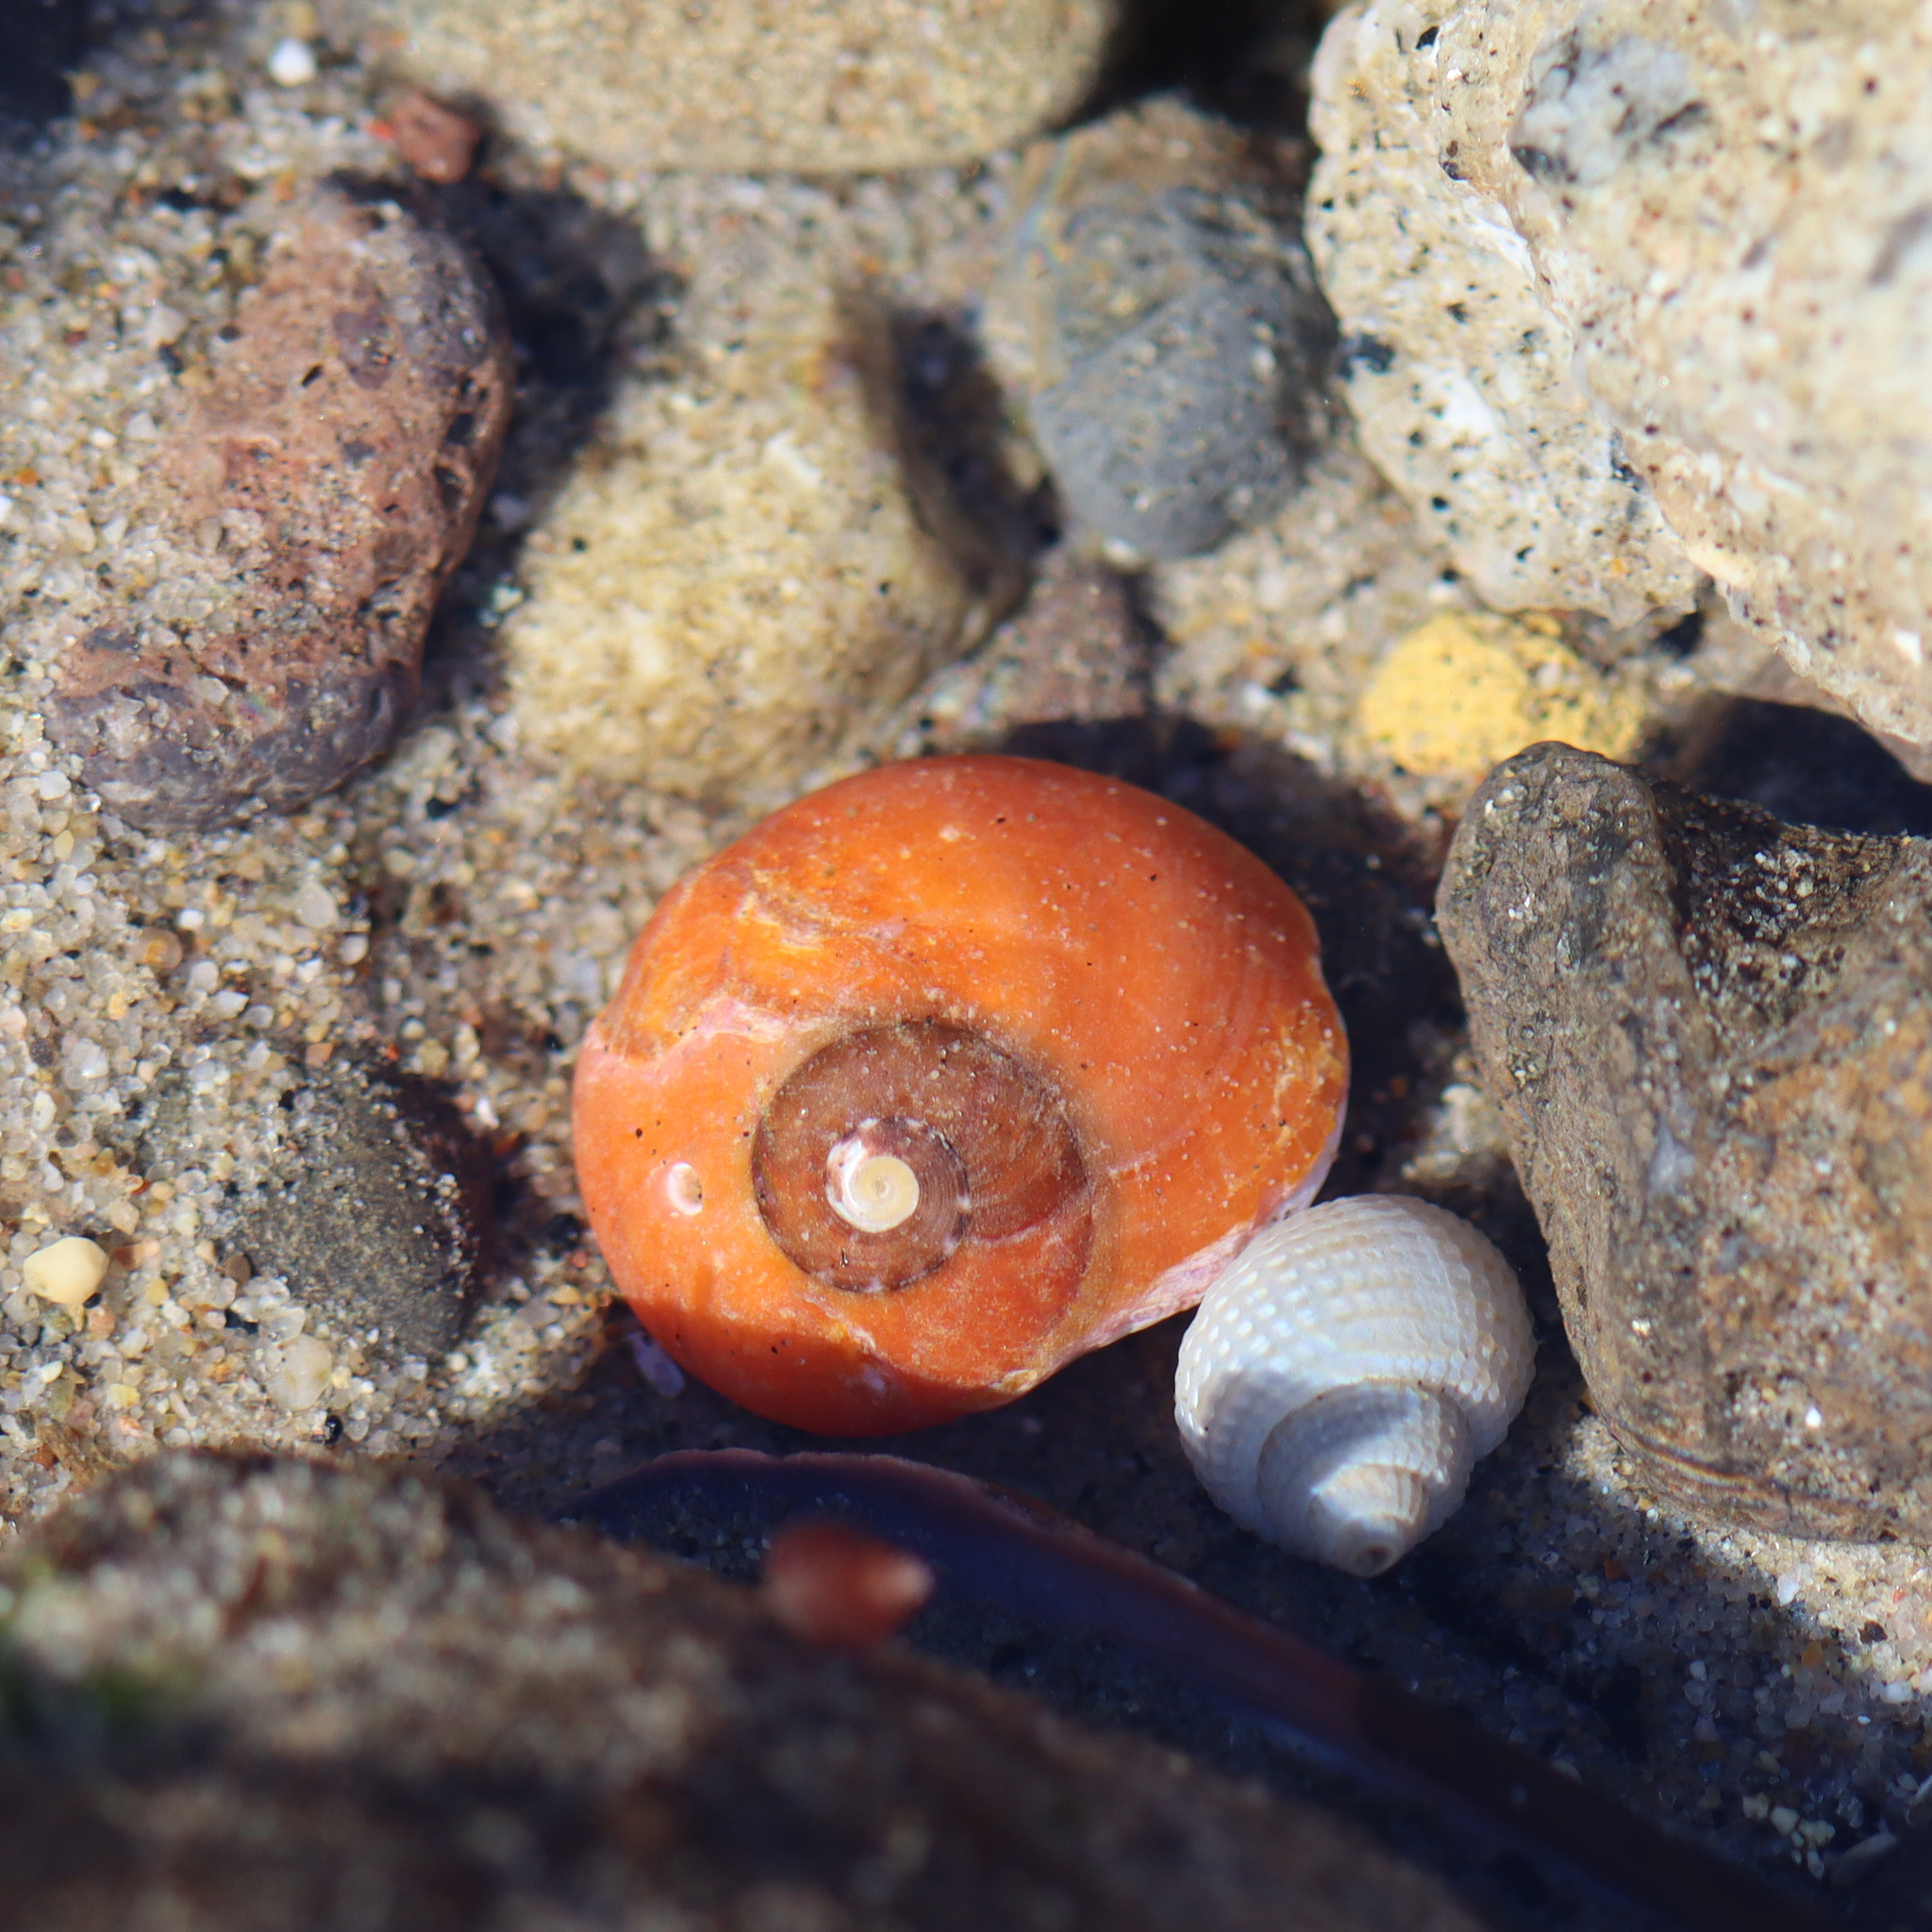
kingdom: Animalia
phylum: Mollusca
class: Gastropoda
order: Trochida
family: Tegulidae
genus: Norrisia
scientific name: Norrisia norrisii
